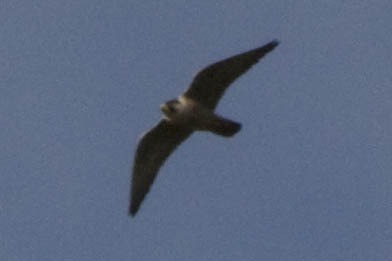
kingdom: Animalia
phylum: Chordata
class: Aves
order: Falconiformes
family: Falconidae
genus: Falco
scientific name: Falco peregrinus
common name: Peregrine falcon
